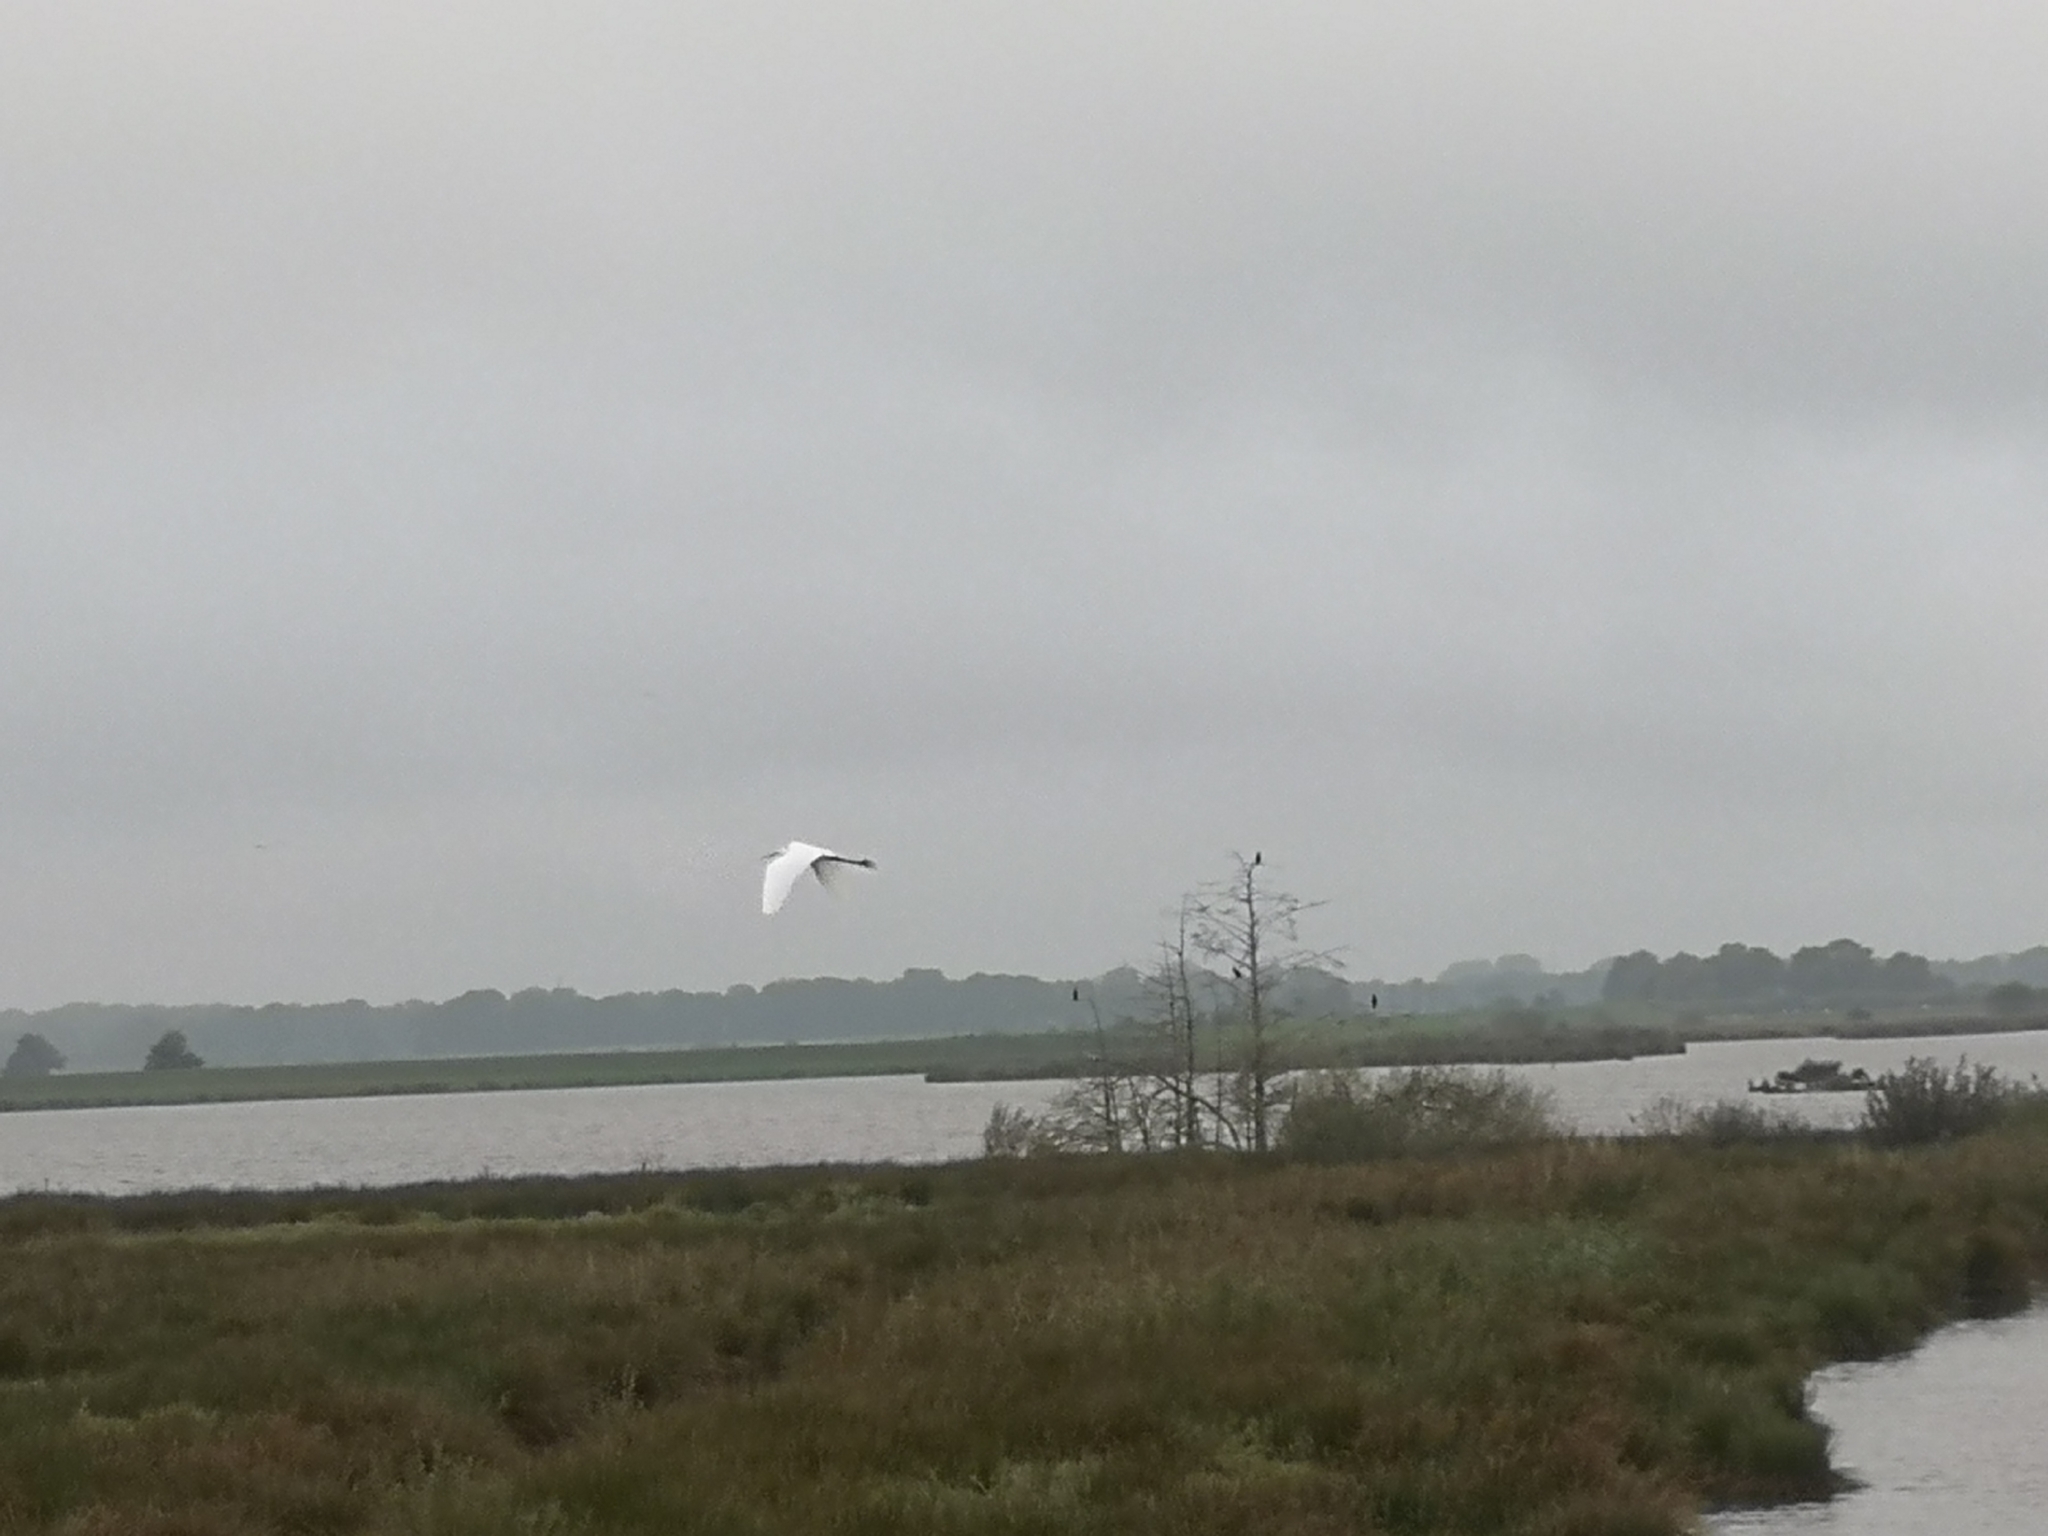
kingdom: Animalia
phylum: Chordata
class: Aves
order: Pelecaniformes
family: Ardeidae
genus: Ardea
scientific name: Ardea alba
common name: Great egret
